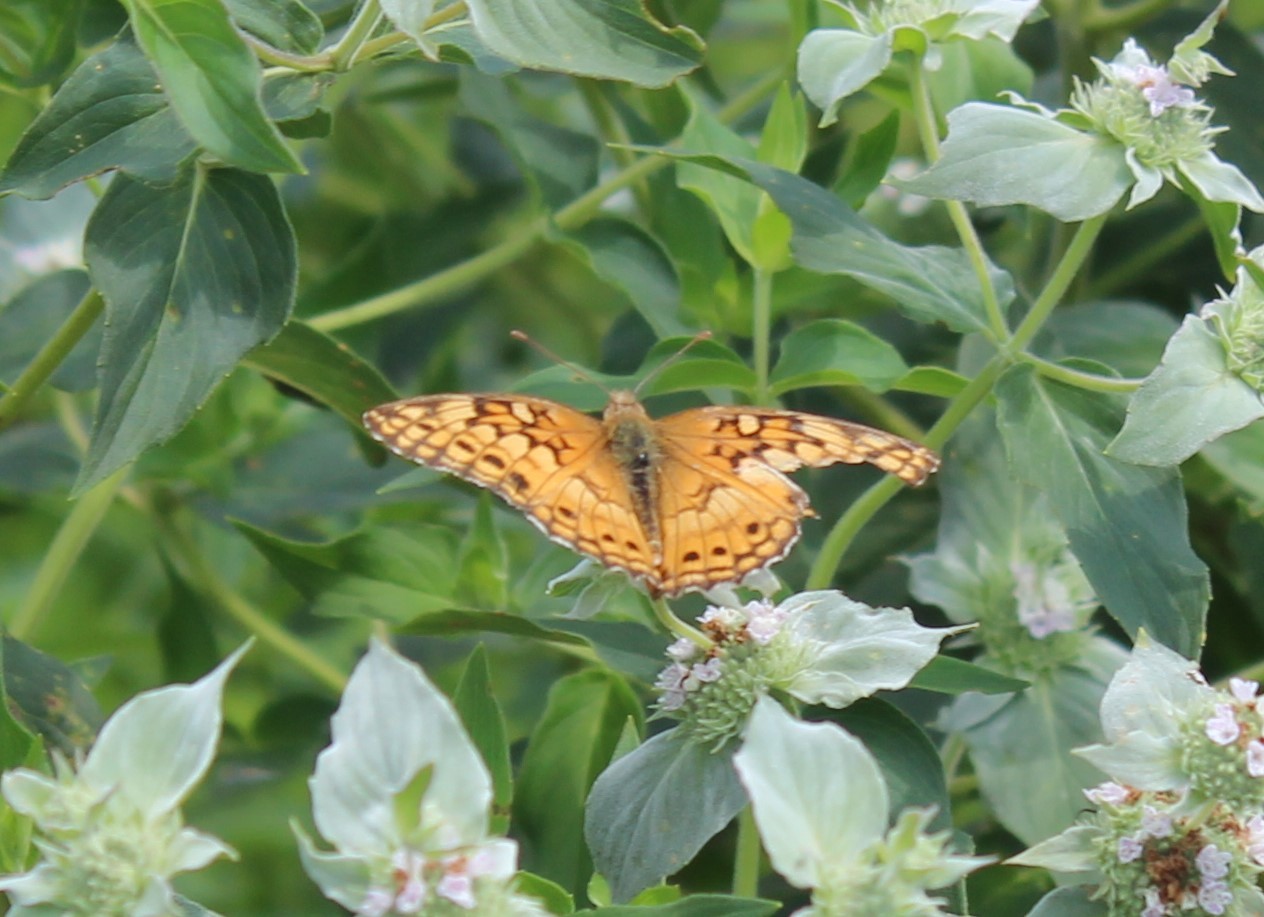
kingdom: Animalia
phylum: Arthropoda
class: Insecta
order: Lepidoptera
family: Nymphalidae
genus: Euptoieta
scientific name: Euptoieta claudia
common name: Variegated fritillary
